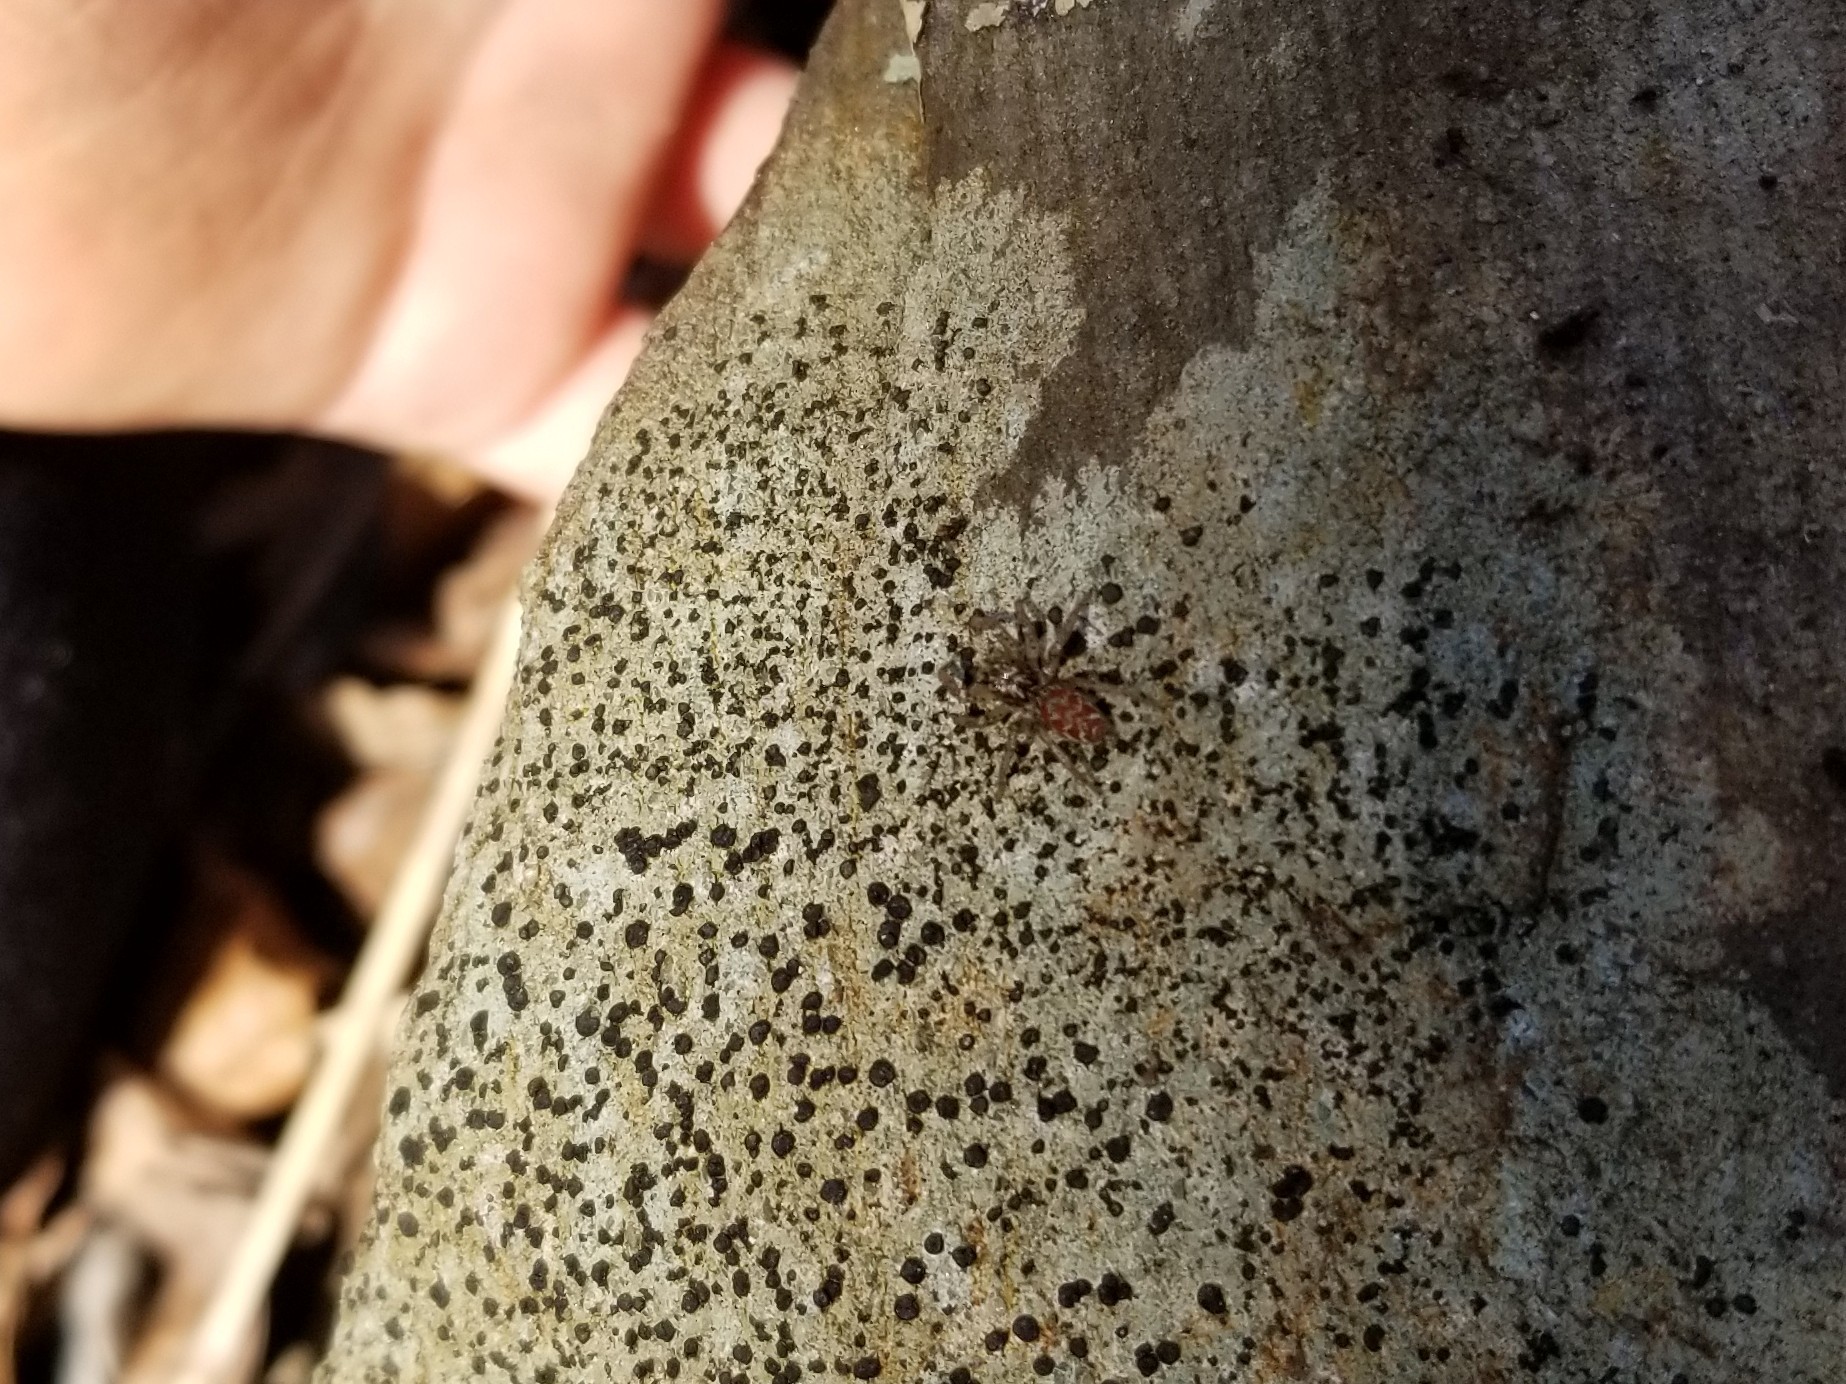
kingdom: Animalia
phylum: Arthropoda
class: Arachnida
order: Araneae
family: Salticidae
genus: Maevia
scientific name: Maevia inclemens
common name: Dimorphic jumper
